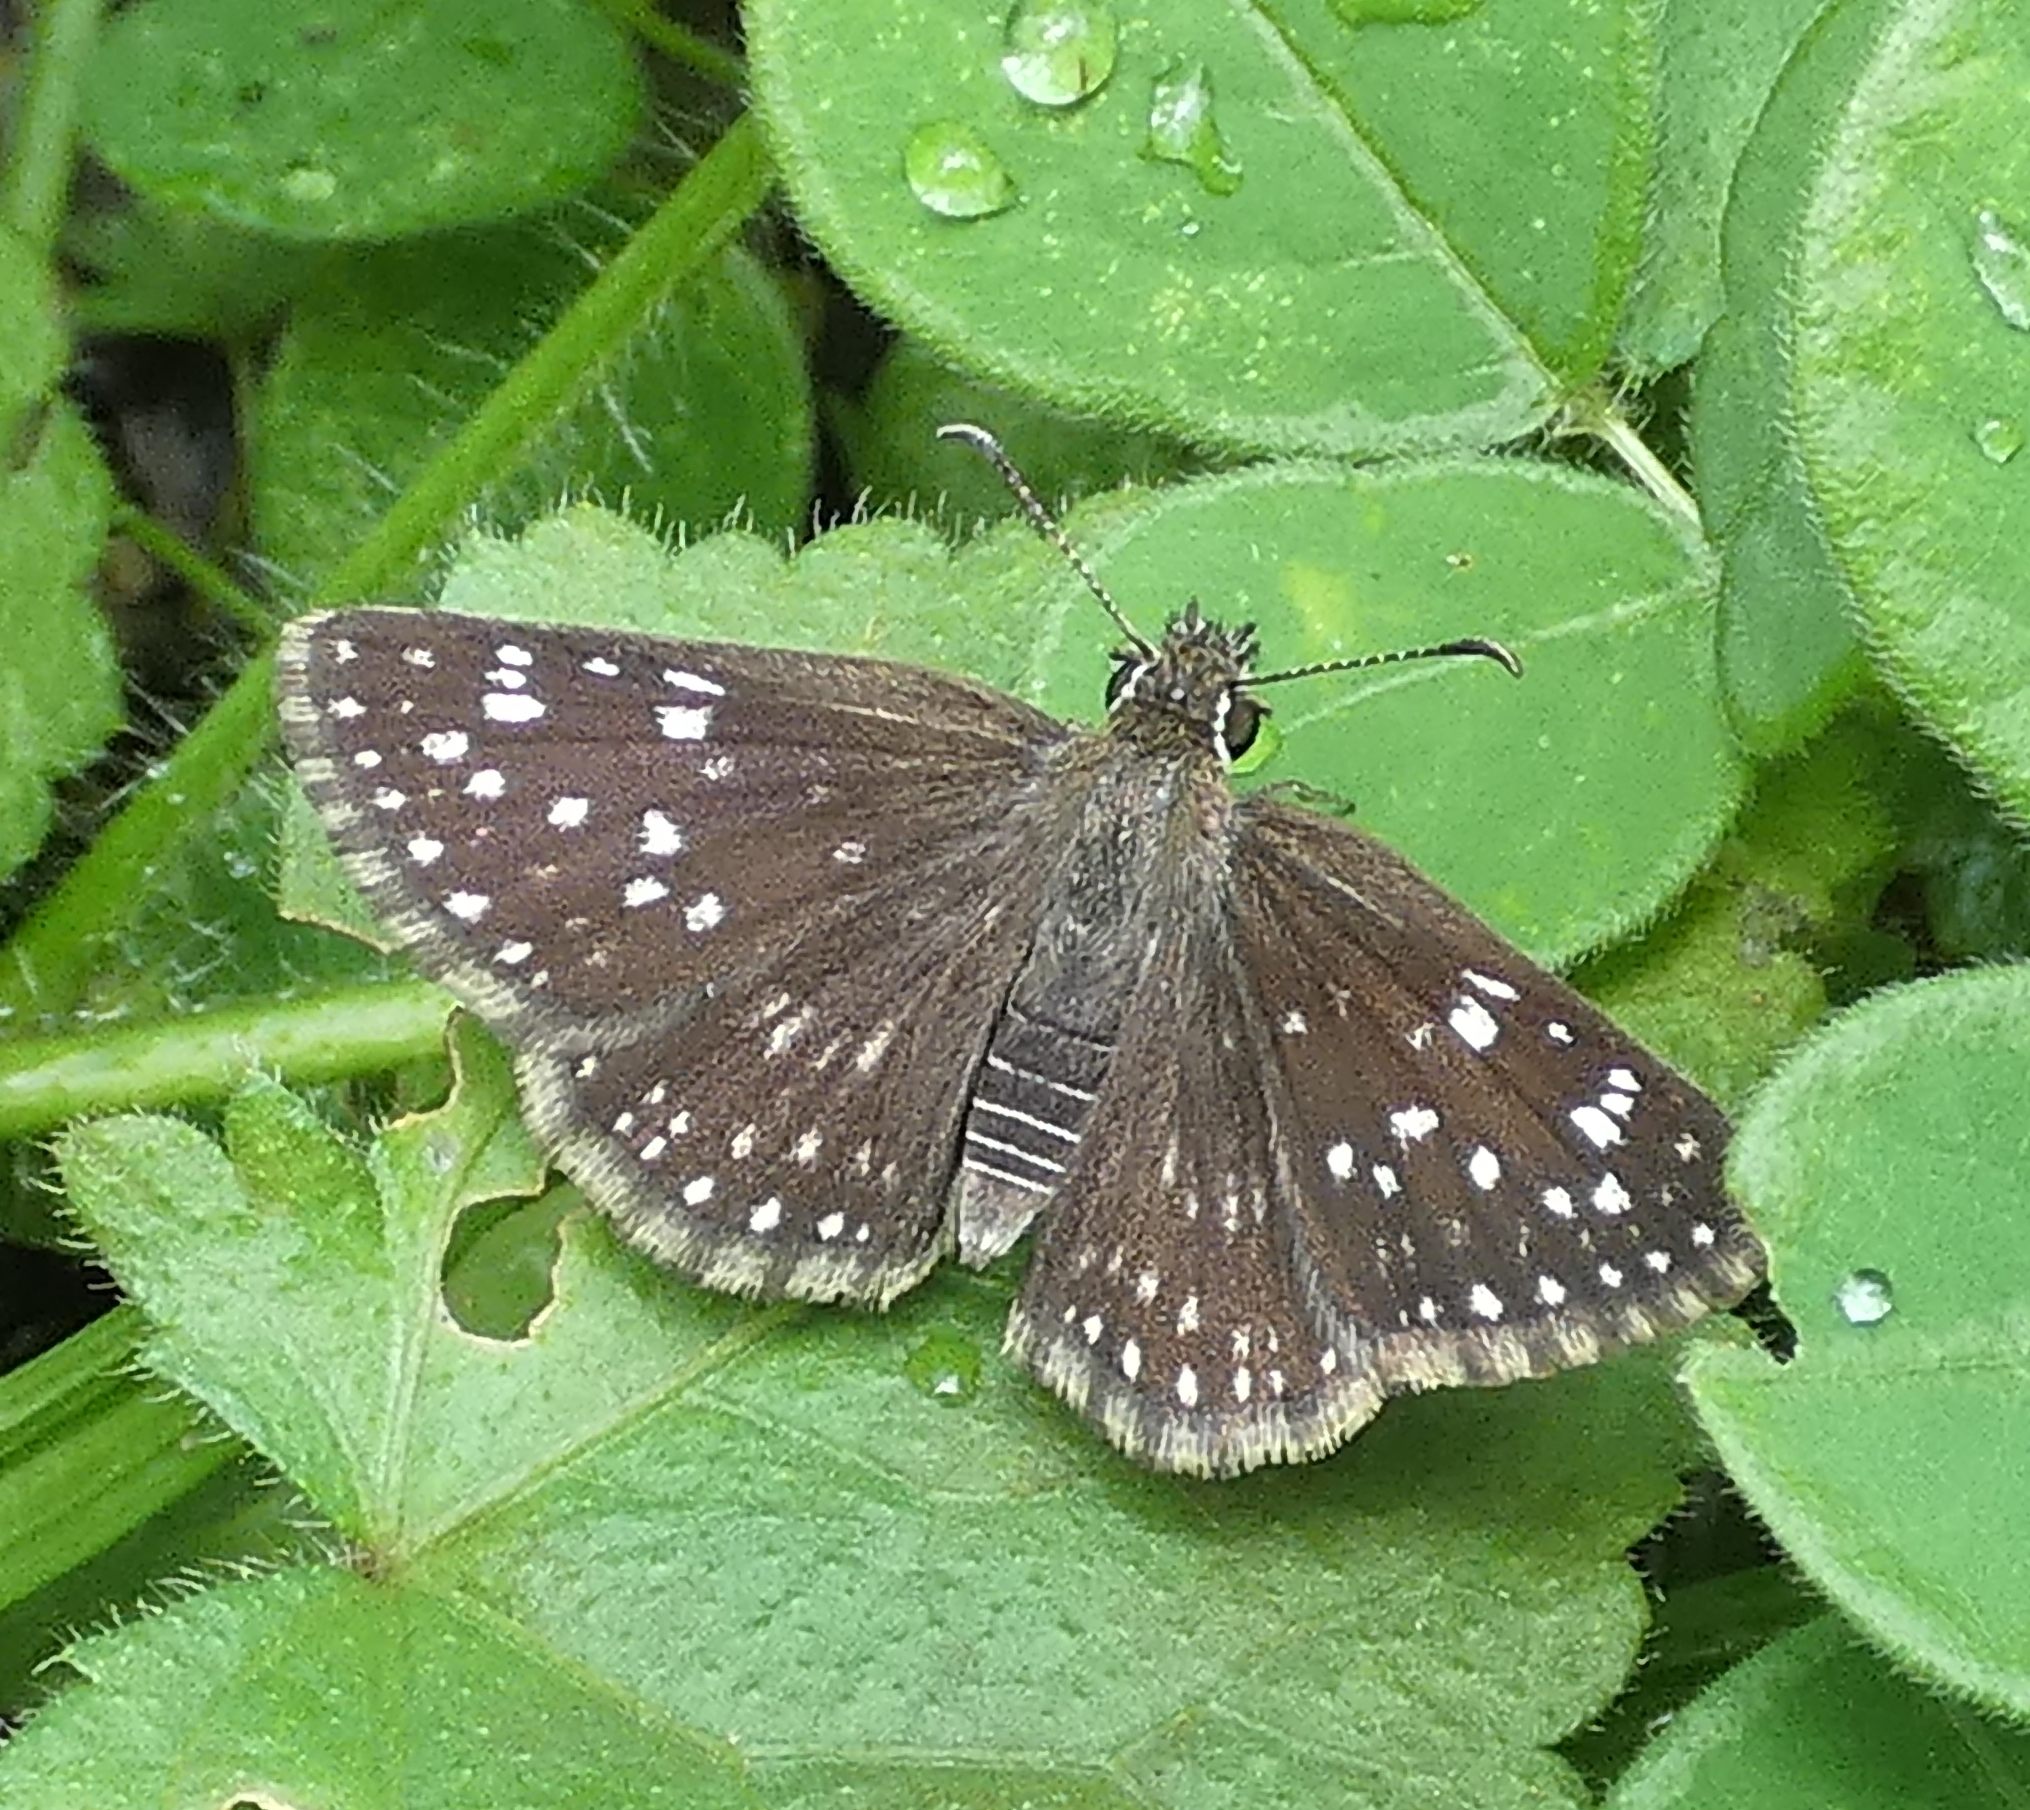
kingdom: Animalia
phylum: Arthropoda
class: Insecta
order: Lepidoptera
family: Hesperiidae
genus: Chirgus
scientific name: Chirgus
